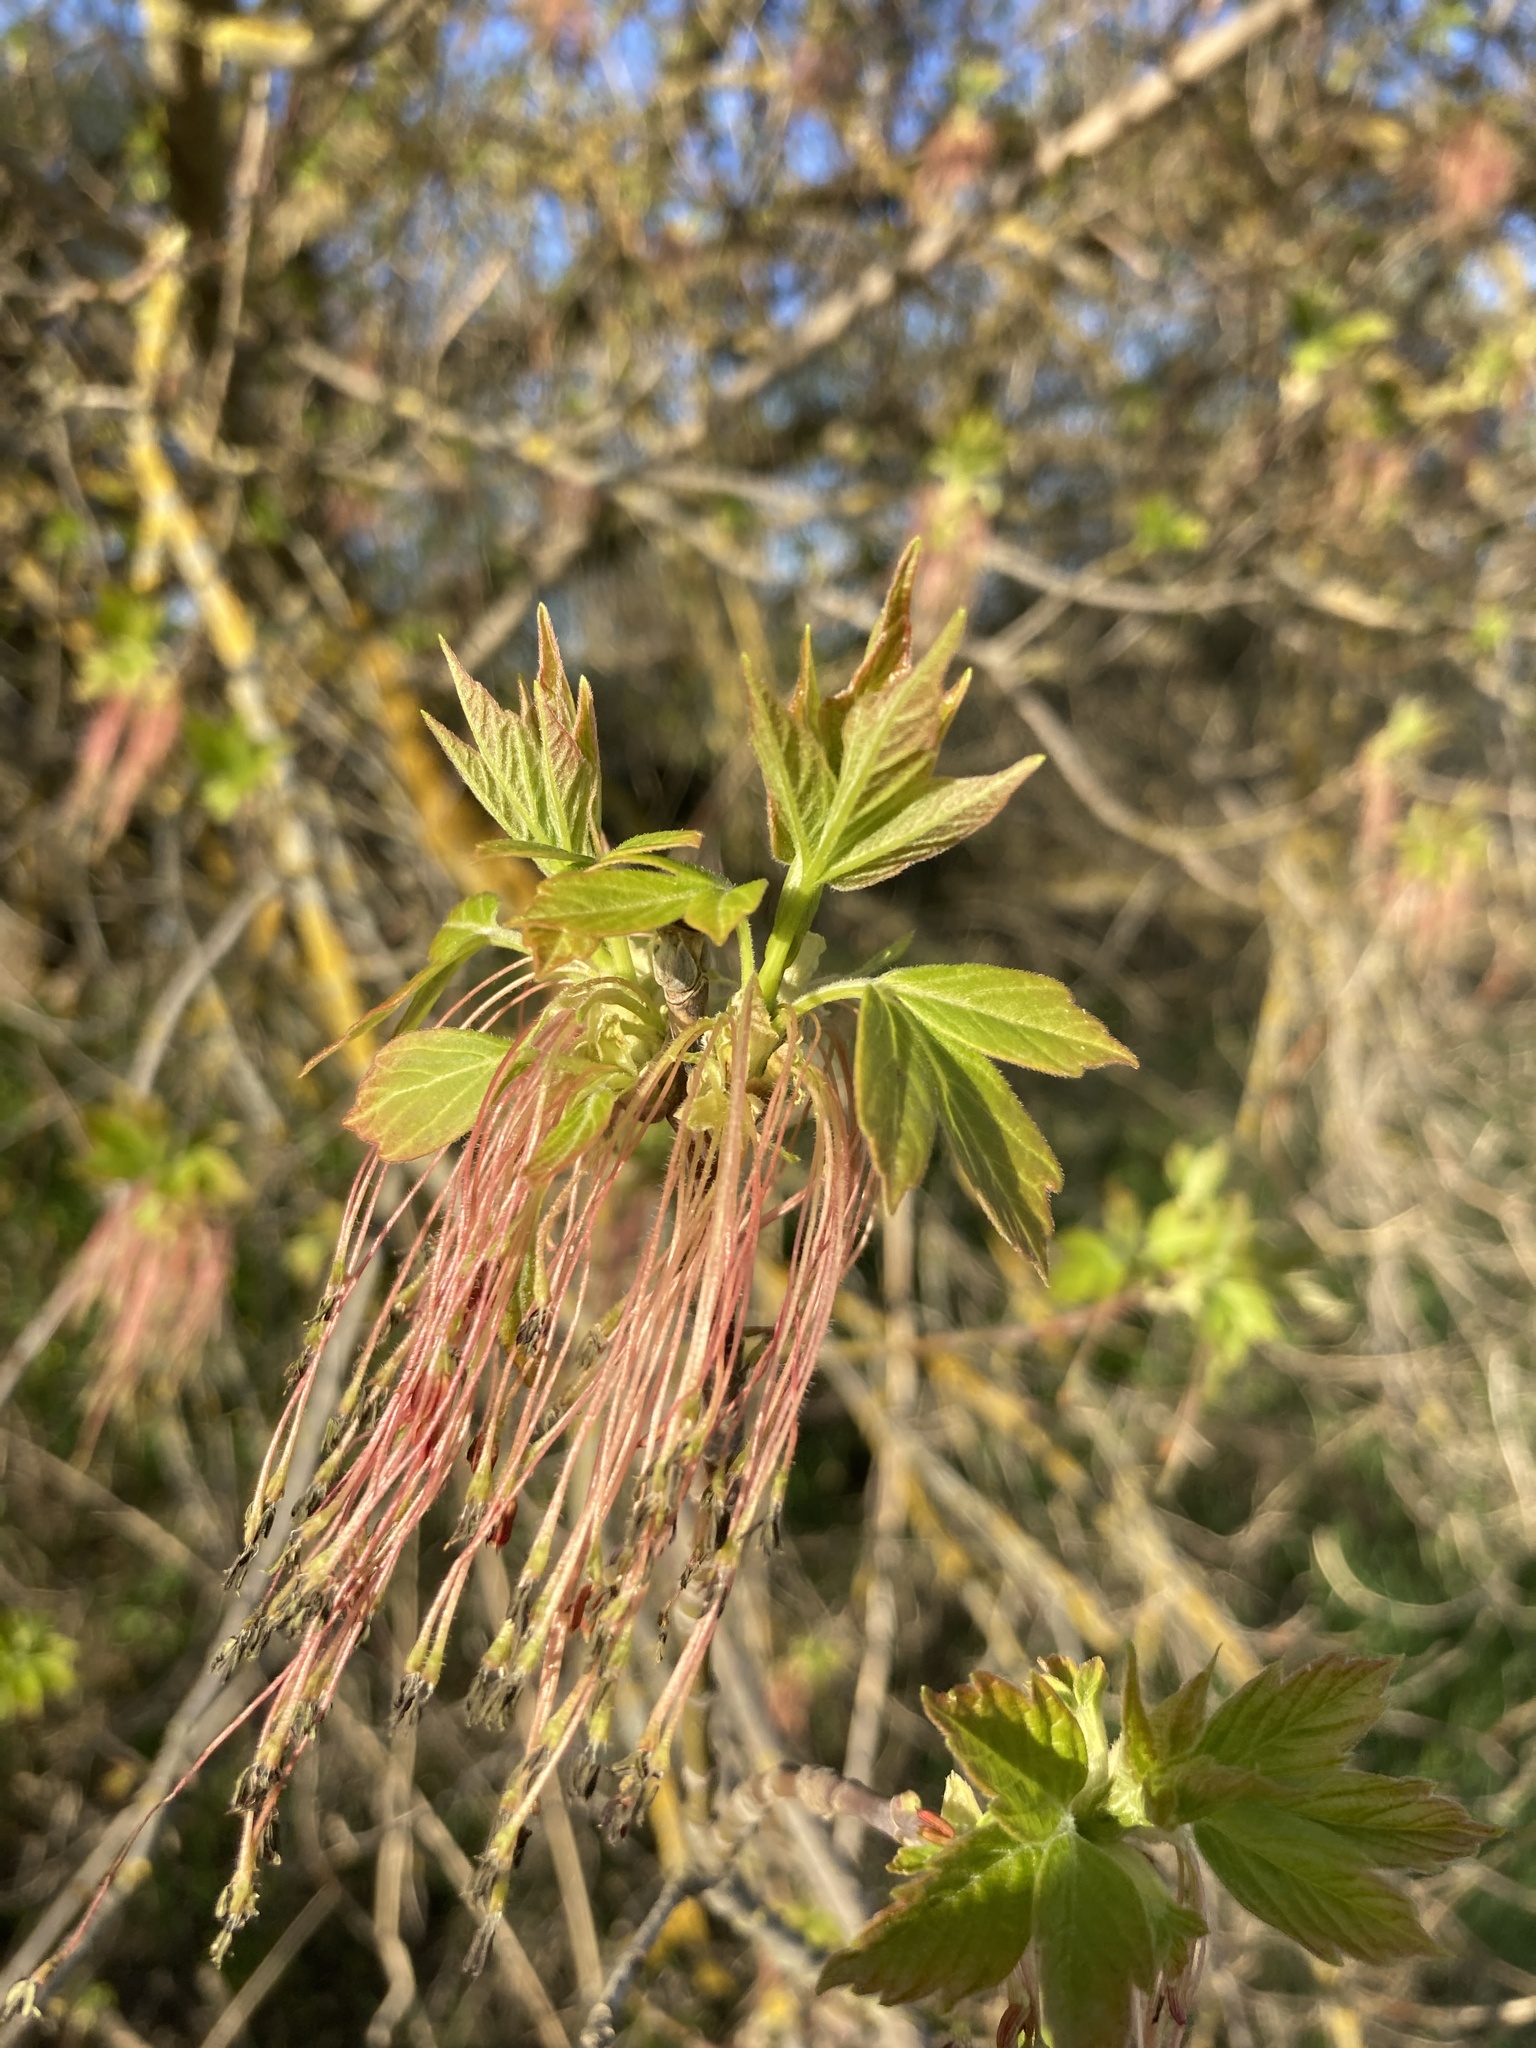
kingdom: Plantae
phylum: Tracheophyta
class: Magnoliopsida
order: Sapindales
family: Sapindaceae
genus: Acer
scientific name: Acer negundo
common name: Ashleaf maple
